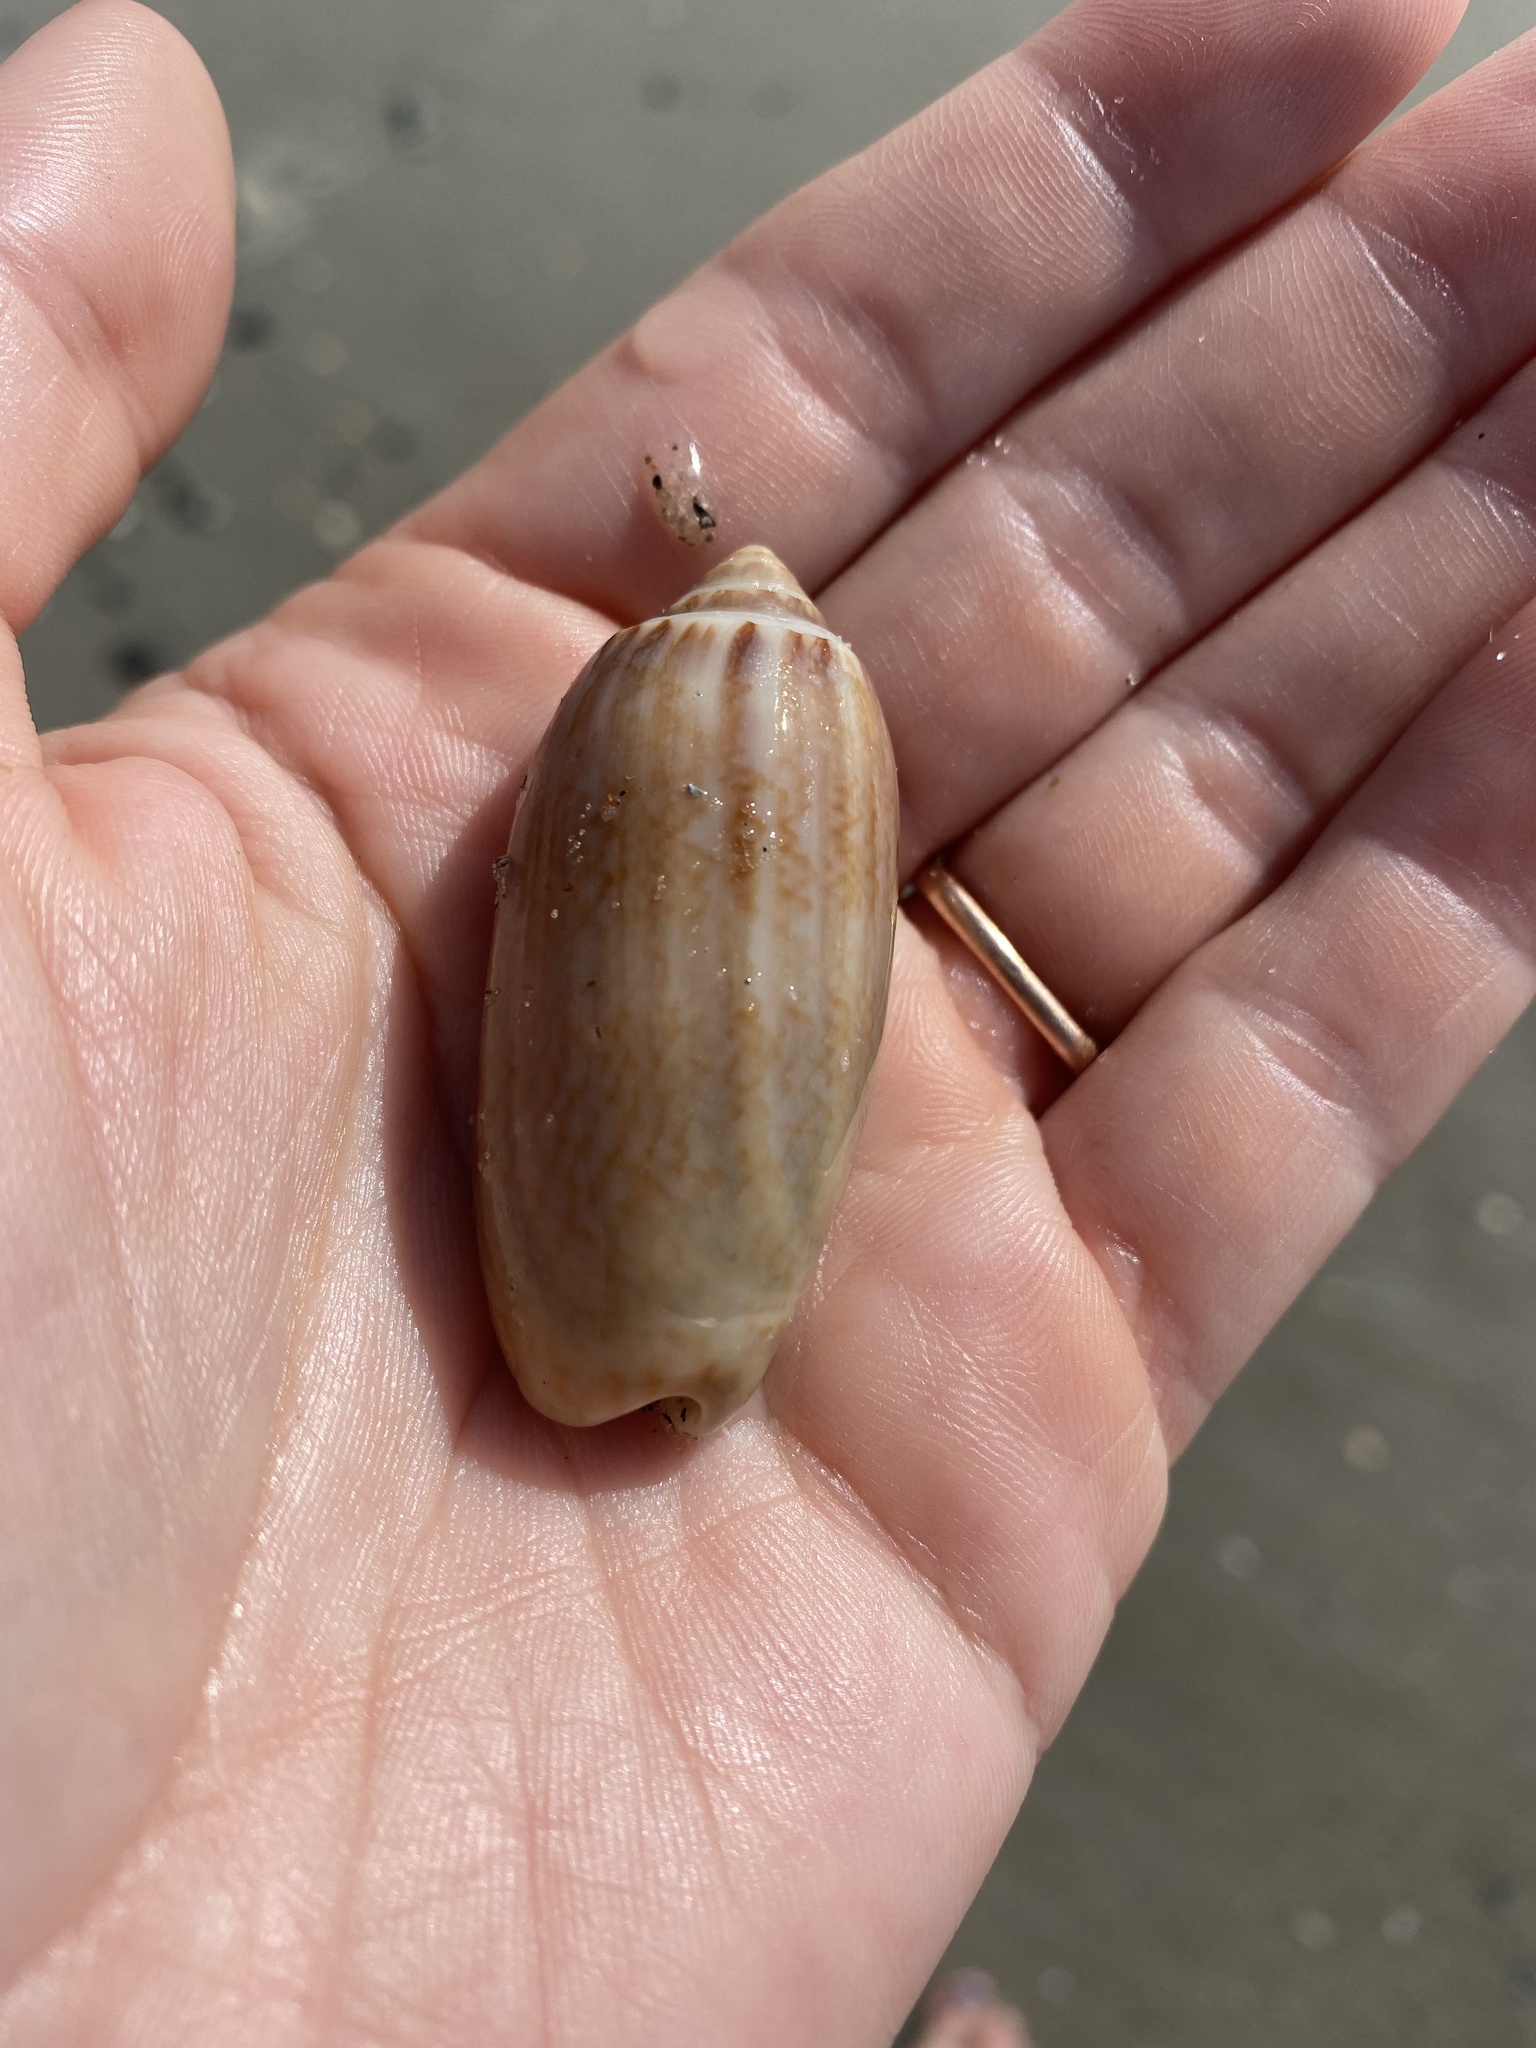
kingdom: Animalia
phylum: Mollusca
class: Gastropoda
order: Neogastropoda
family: Olividae
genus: Oliva
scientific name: Oliva sayana
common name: Lettered olive
